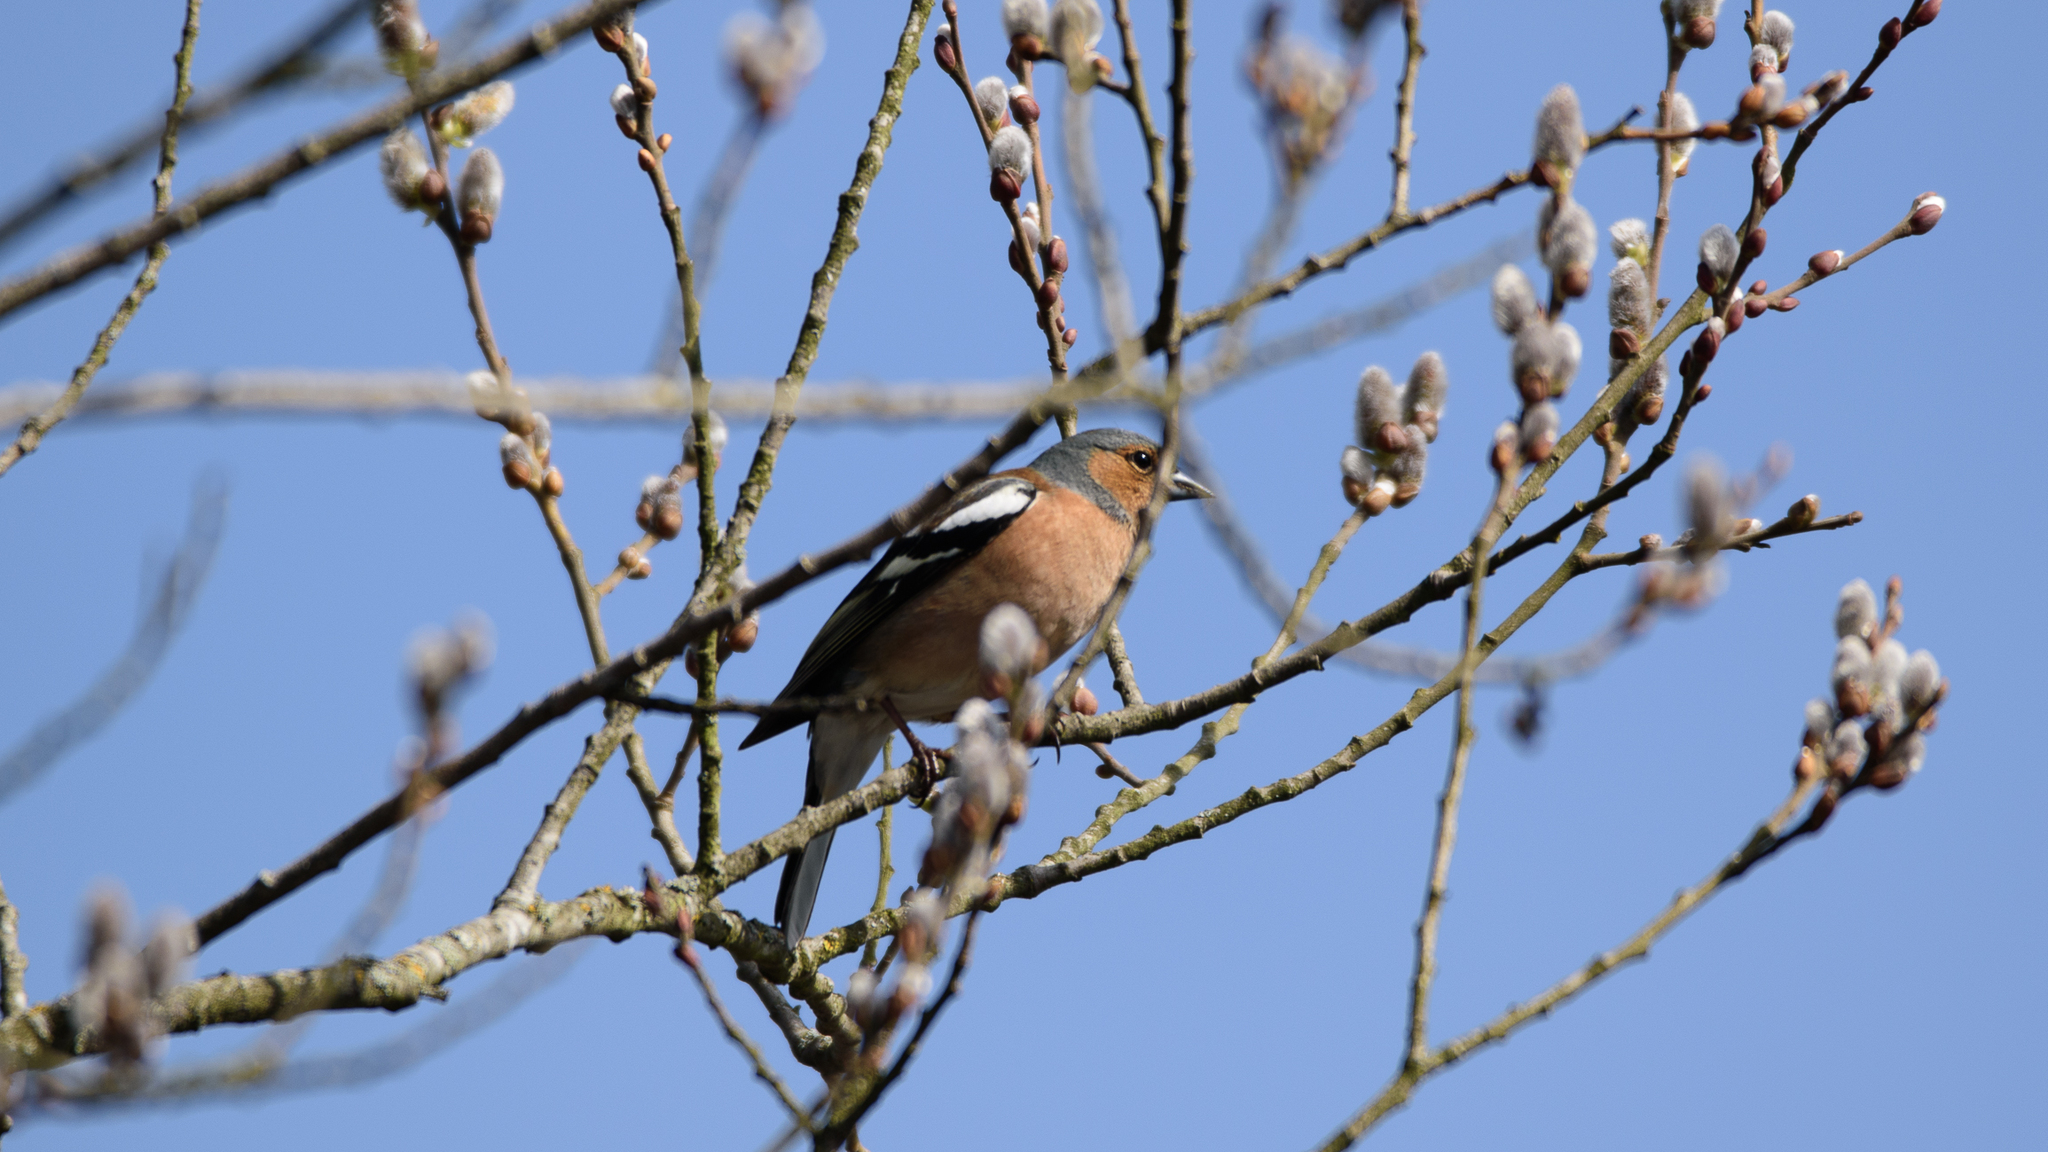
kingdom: Animalia
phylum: Chordata
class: Aves
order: Passeriformes
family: Fringillidae
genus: Fringilla
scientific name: Fringilla coelebs
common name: Common chaffinch
